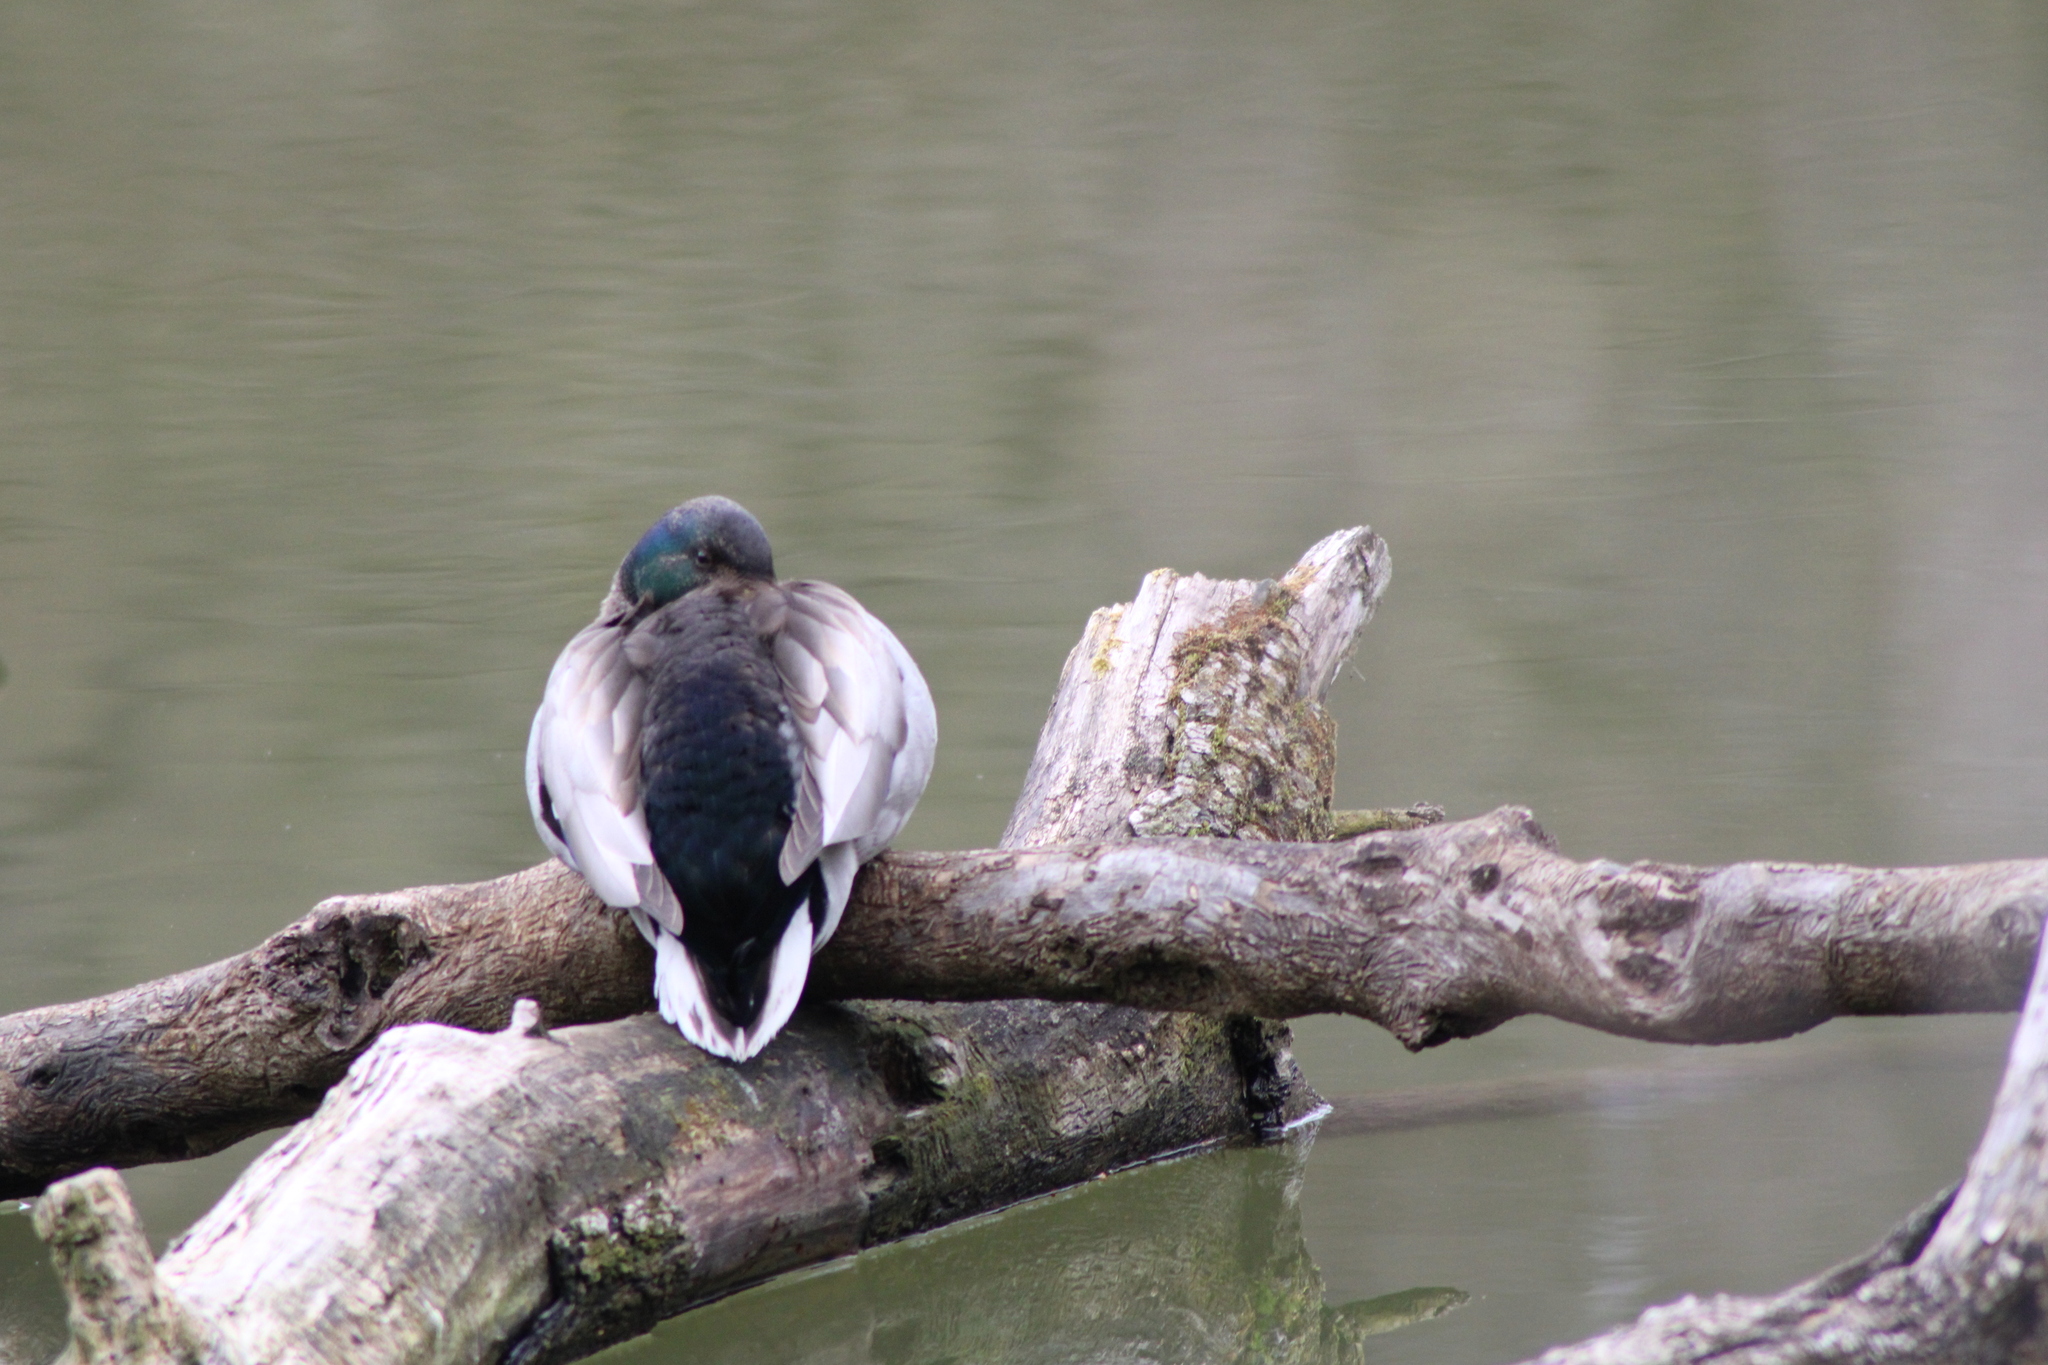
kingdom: Animalia
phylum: Chordata
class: Aves
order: Anseriformes
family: Anatidae
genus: Anas
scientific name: Anas platyrhynchos
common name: Mallard
